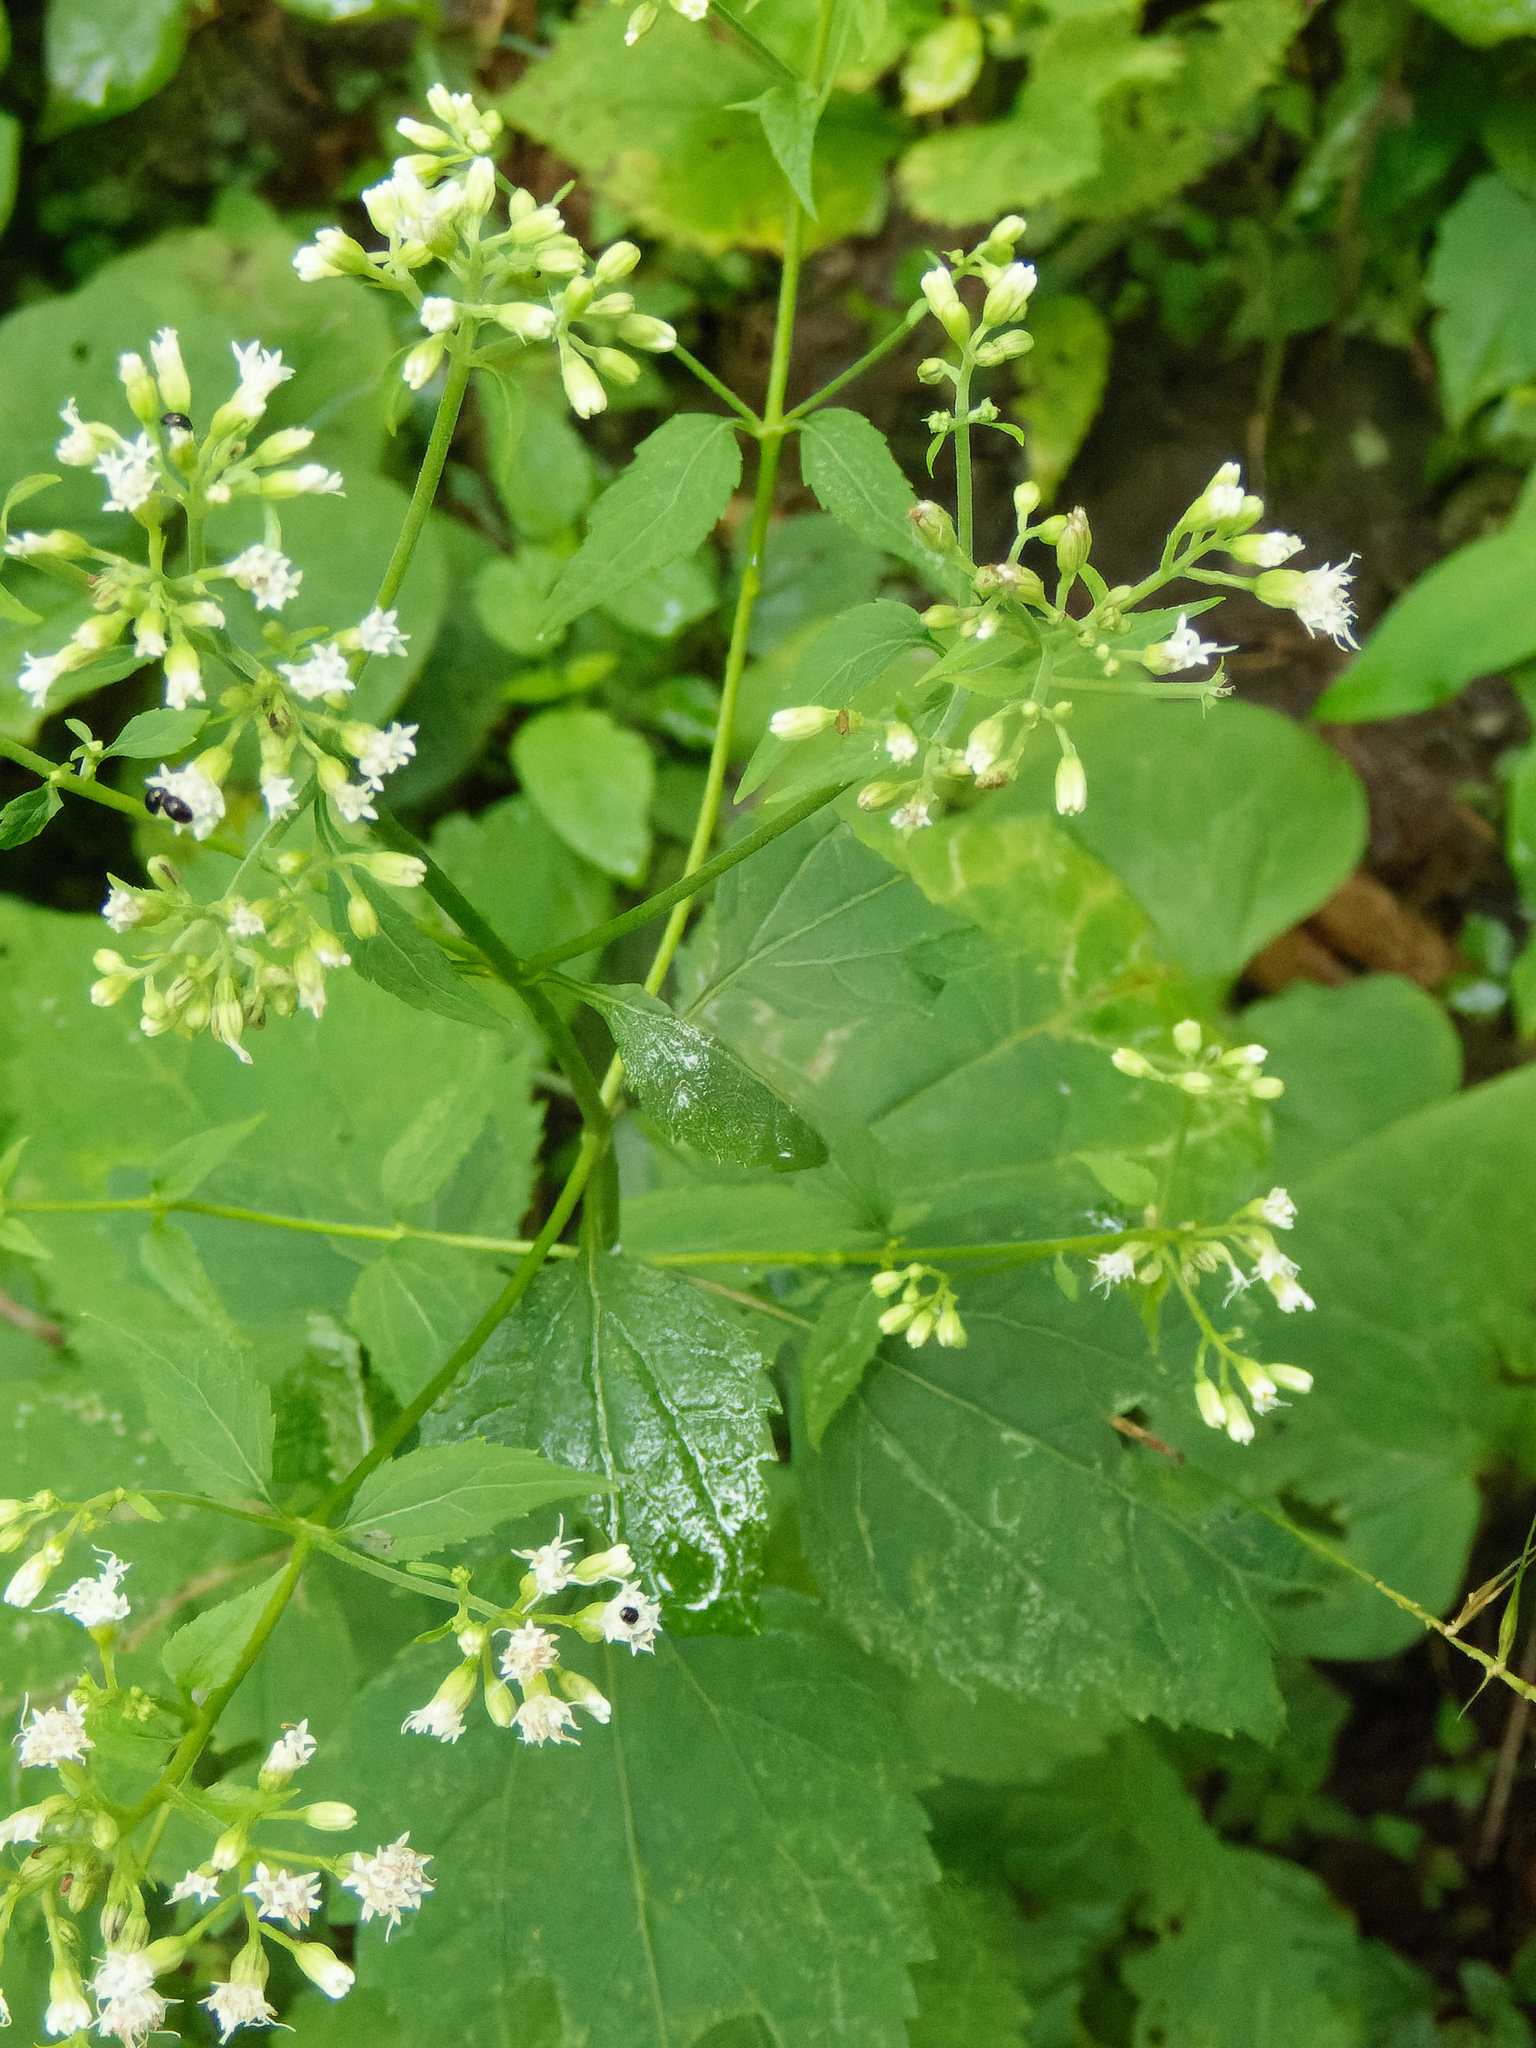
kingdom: Plantae
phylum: Tracheophyta
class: Magnoliopsida
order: Asterales
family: Asteraceae
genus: Ageratina
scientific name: Ageratina altissima
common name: White snakeroot
